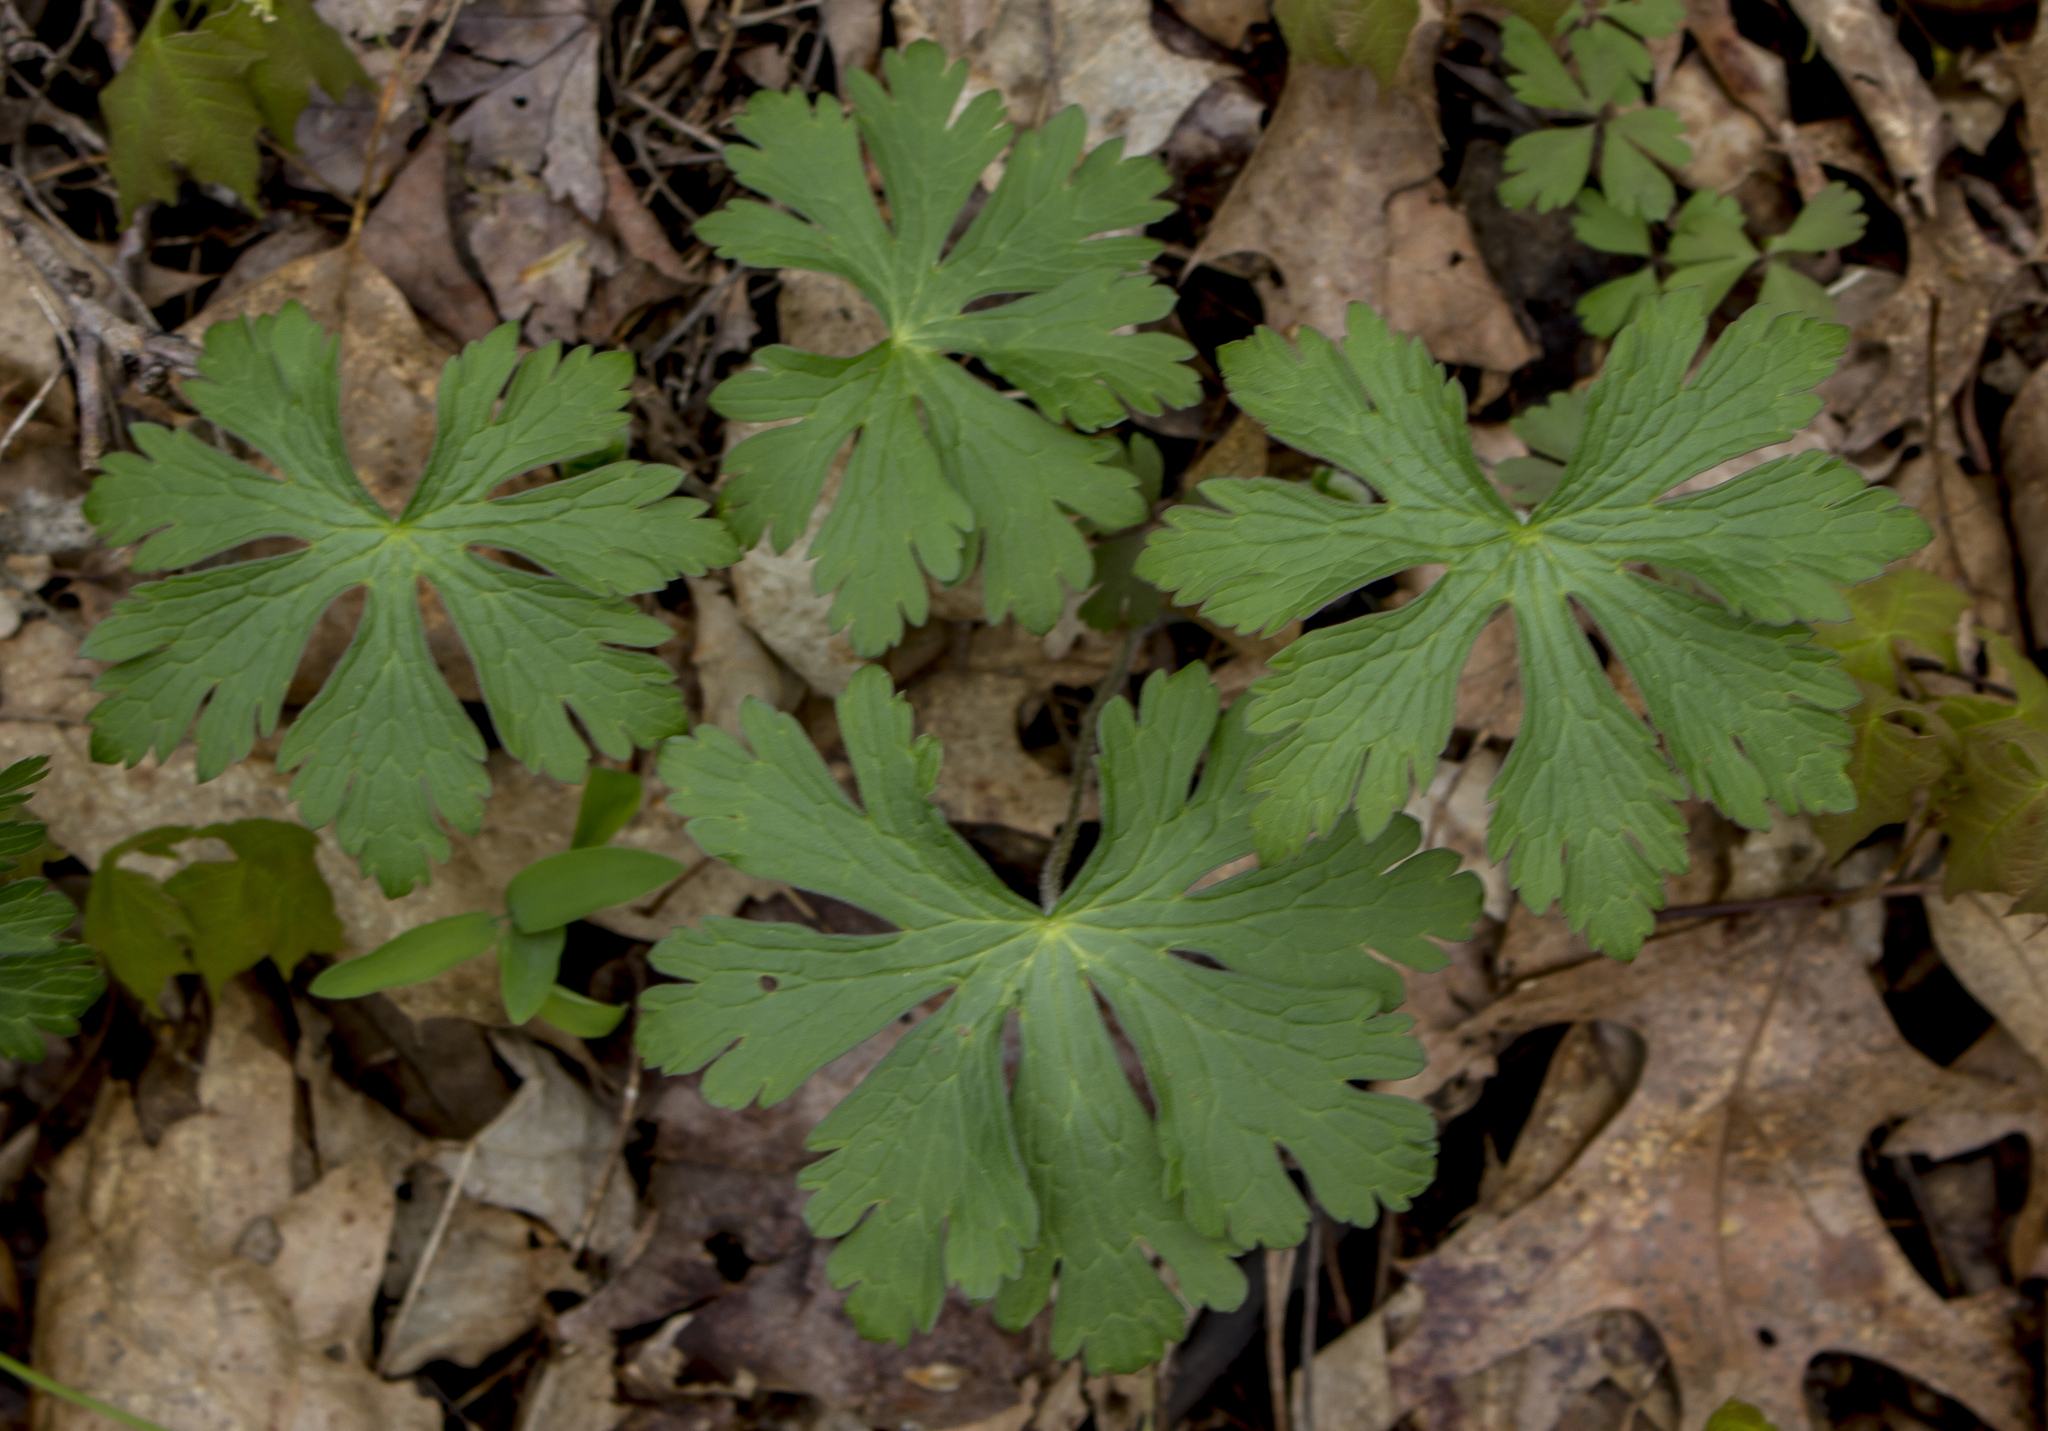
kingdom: Plantae
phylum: Tracheophyta
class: Magnoliopsida
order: Geraniales
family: Geraniaceae
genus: Geranium
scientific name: Geranium maculatum
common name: Spotted geranium
